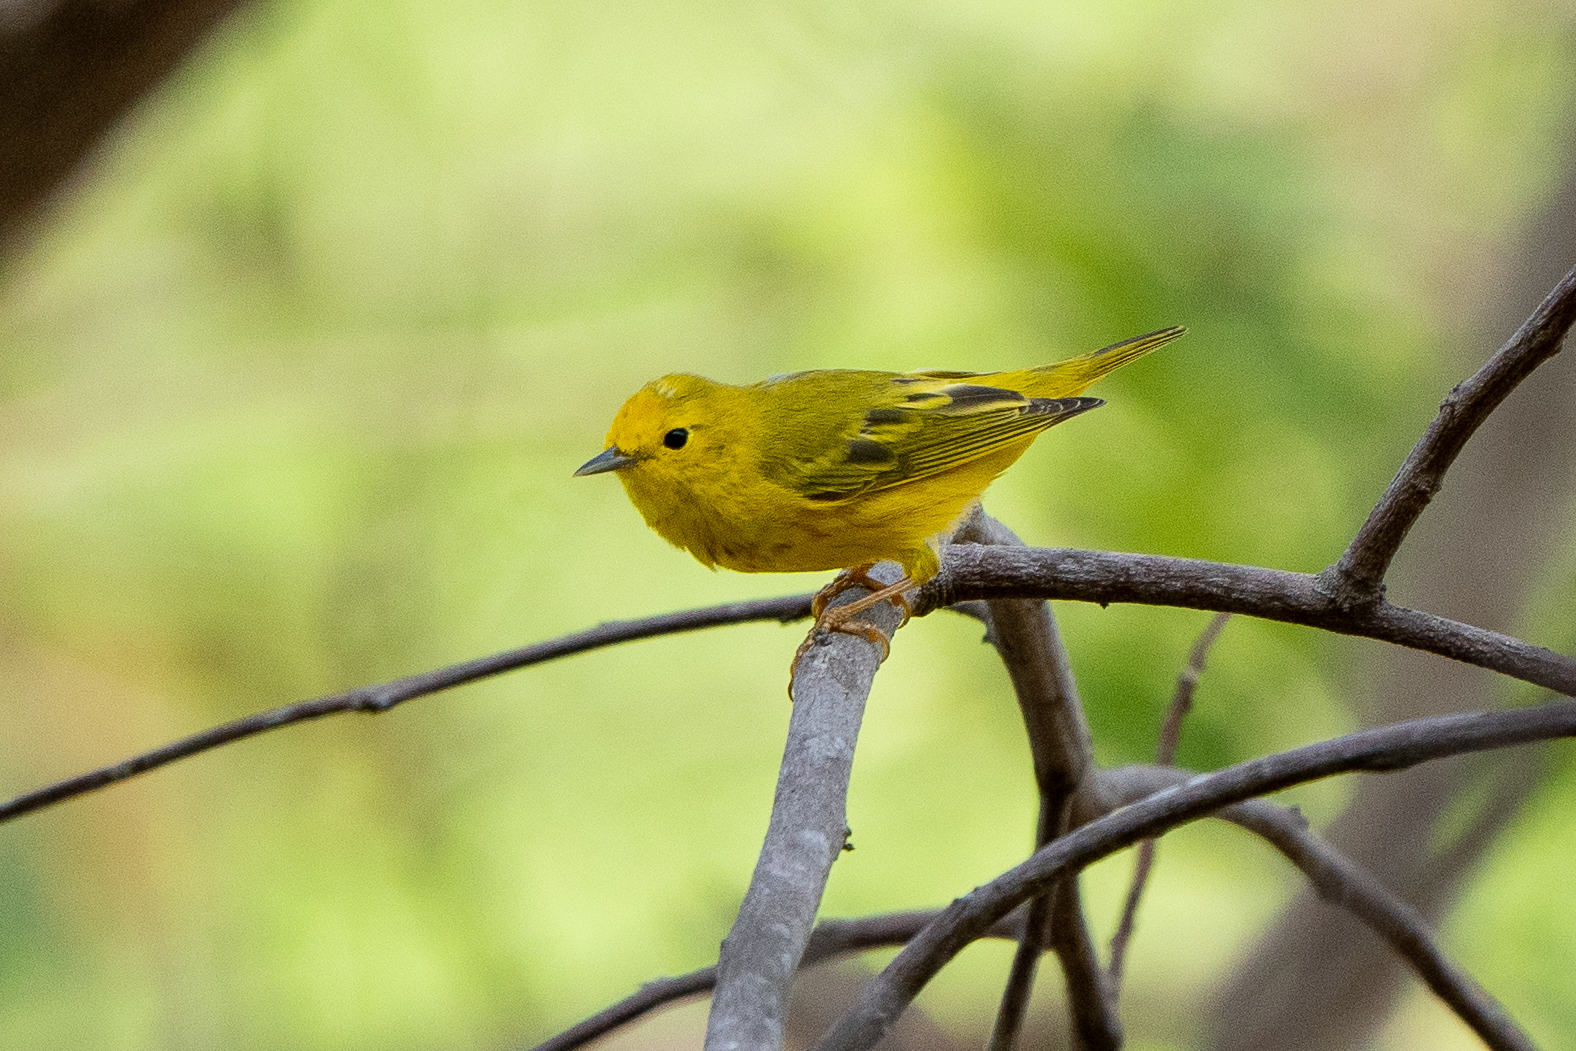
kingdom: Animalia
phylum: Chordata
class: Aves
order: Passeriformes
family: Parulidae
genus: Setophaga
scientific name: Setophaga petechia
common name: Yellow warbler
